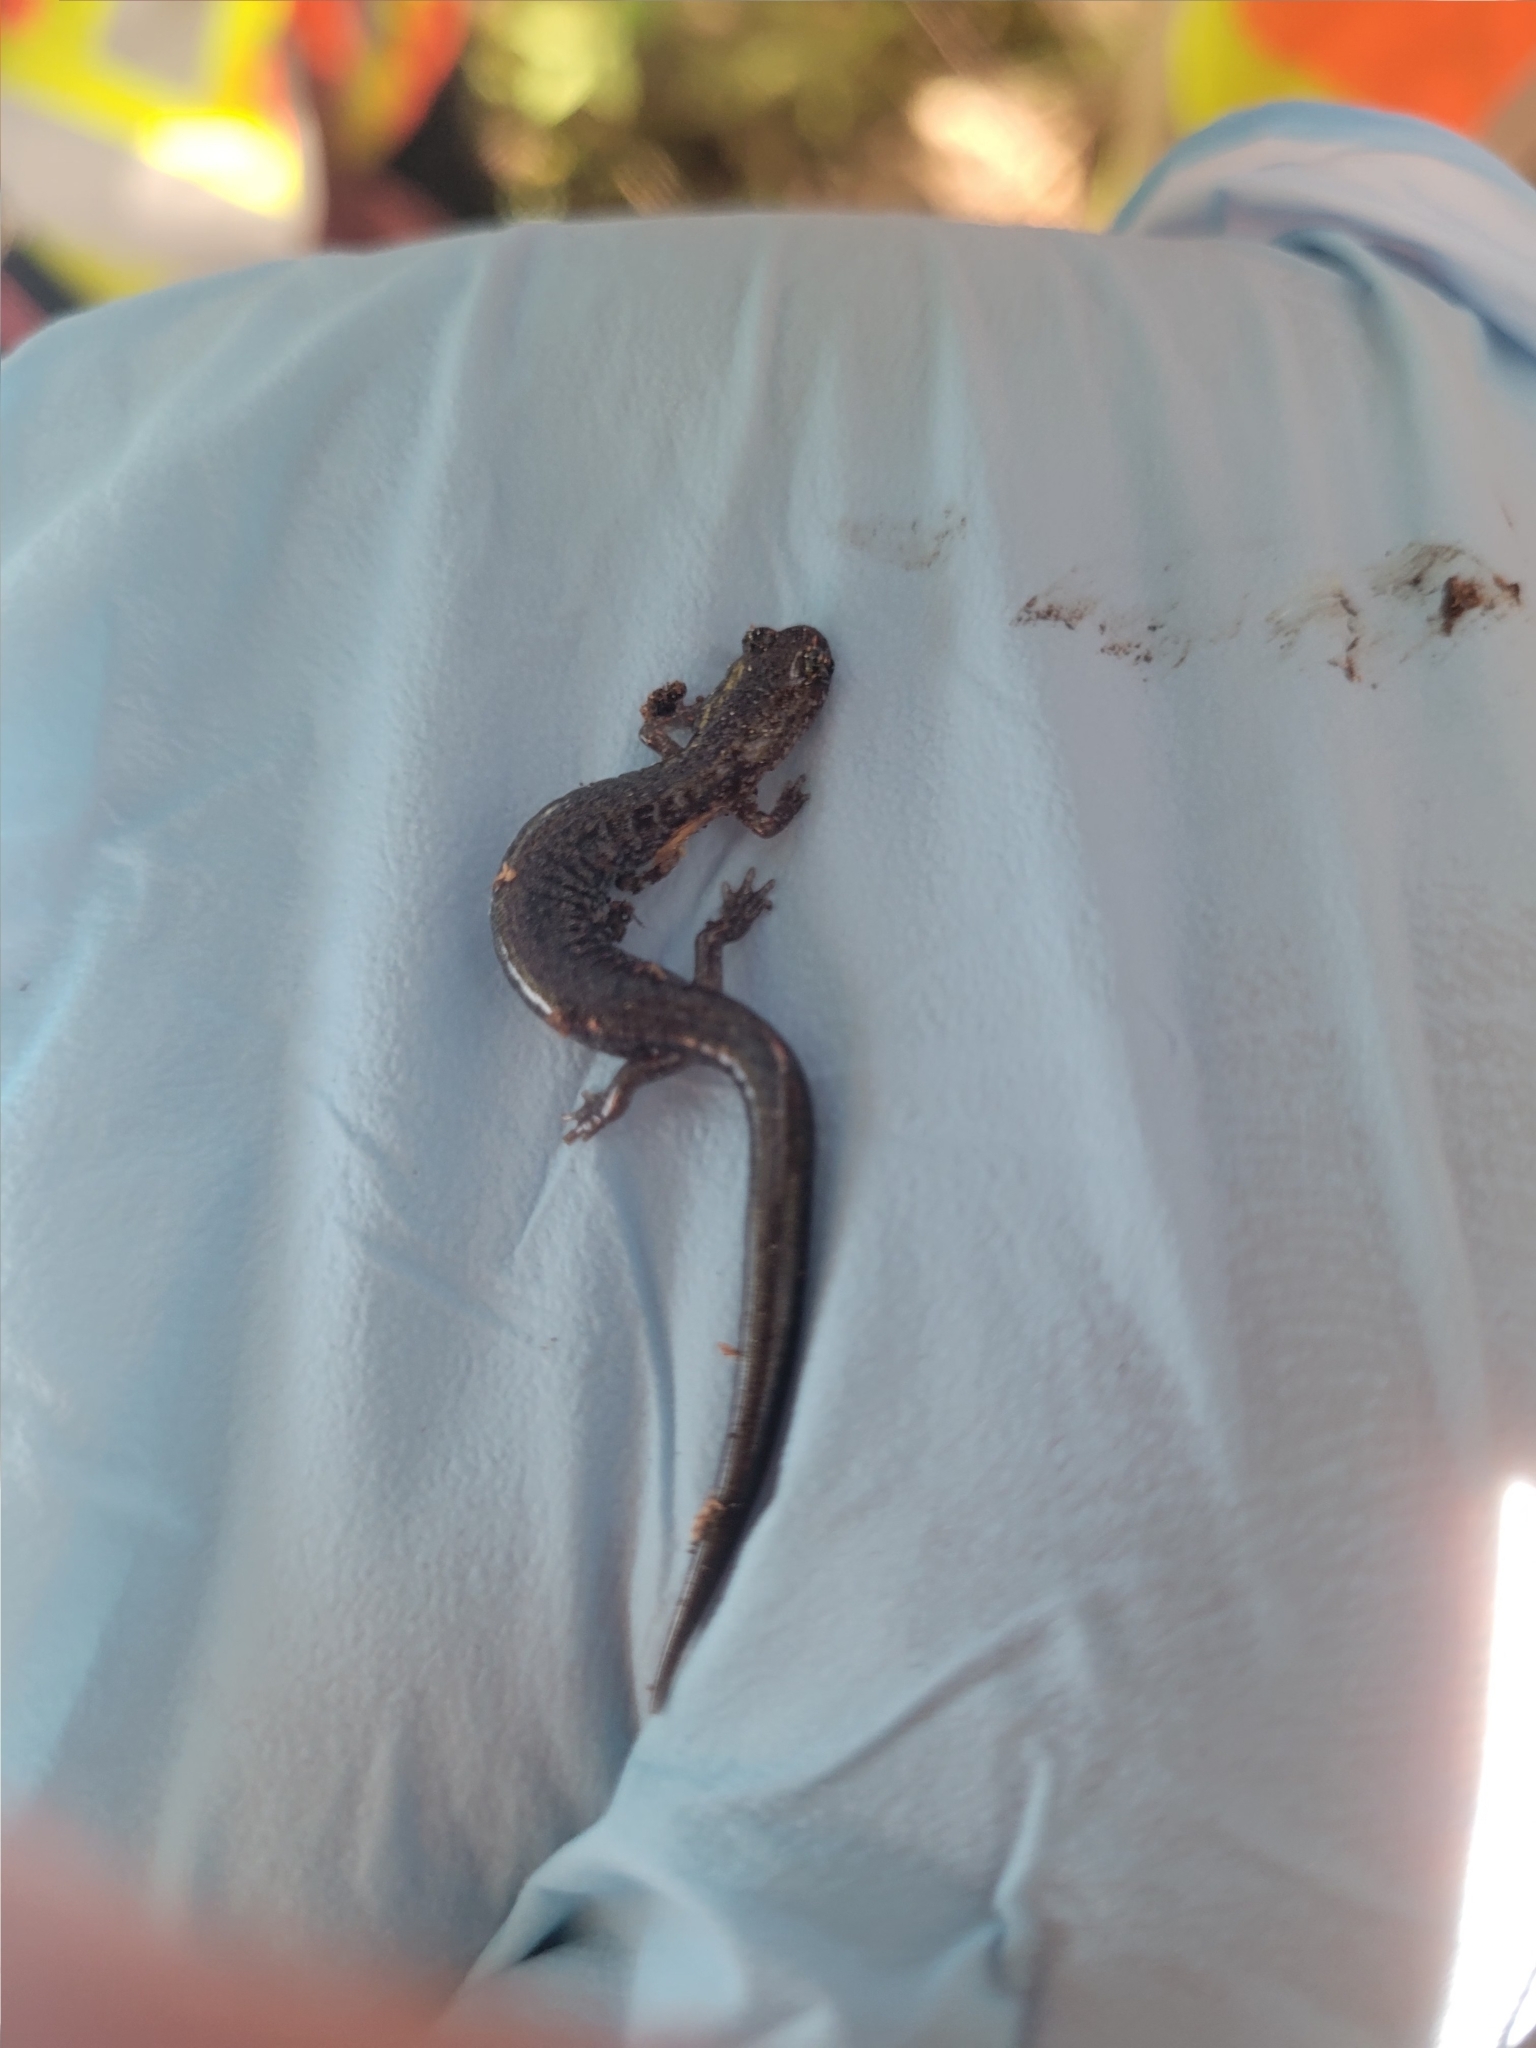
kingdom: Animalia
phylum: Chordata
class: Amphibia
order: Caudata
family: Plethodontidae
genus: Plethodon
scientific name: Plethodon cinereus
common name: Redback salamander
